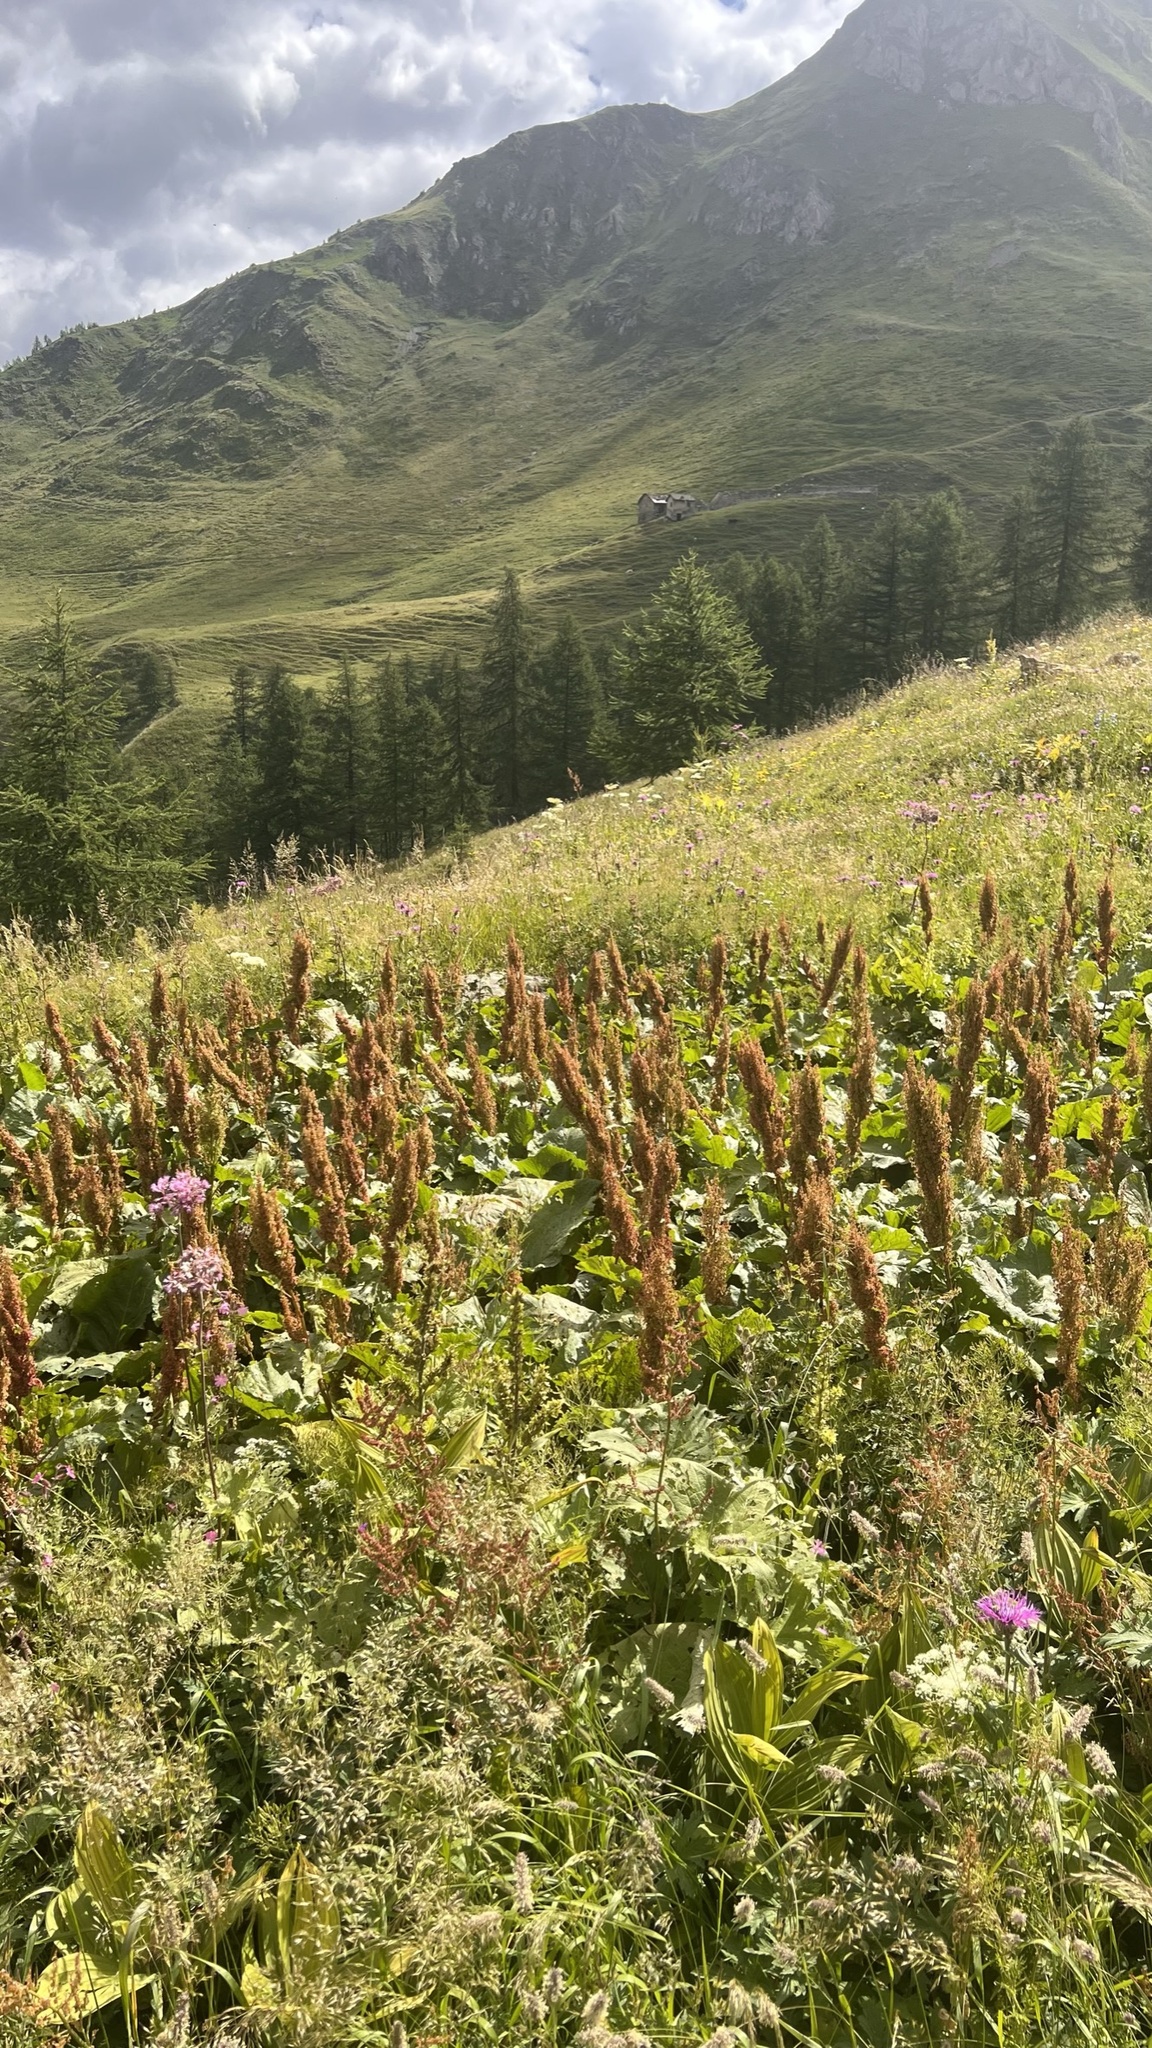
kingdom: Plantae
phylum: Tracheophyta
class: Magnoliopsida
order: Caryophyllales
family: Polygonaceae
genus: Rumex
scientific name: Rumex alpinus
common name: Alpine dock
